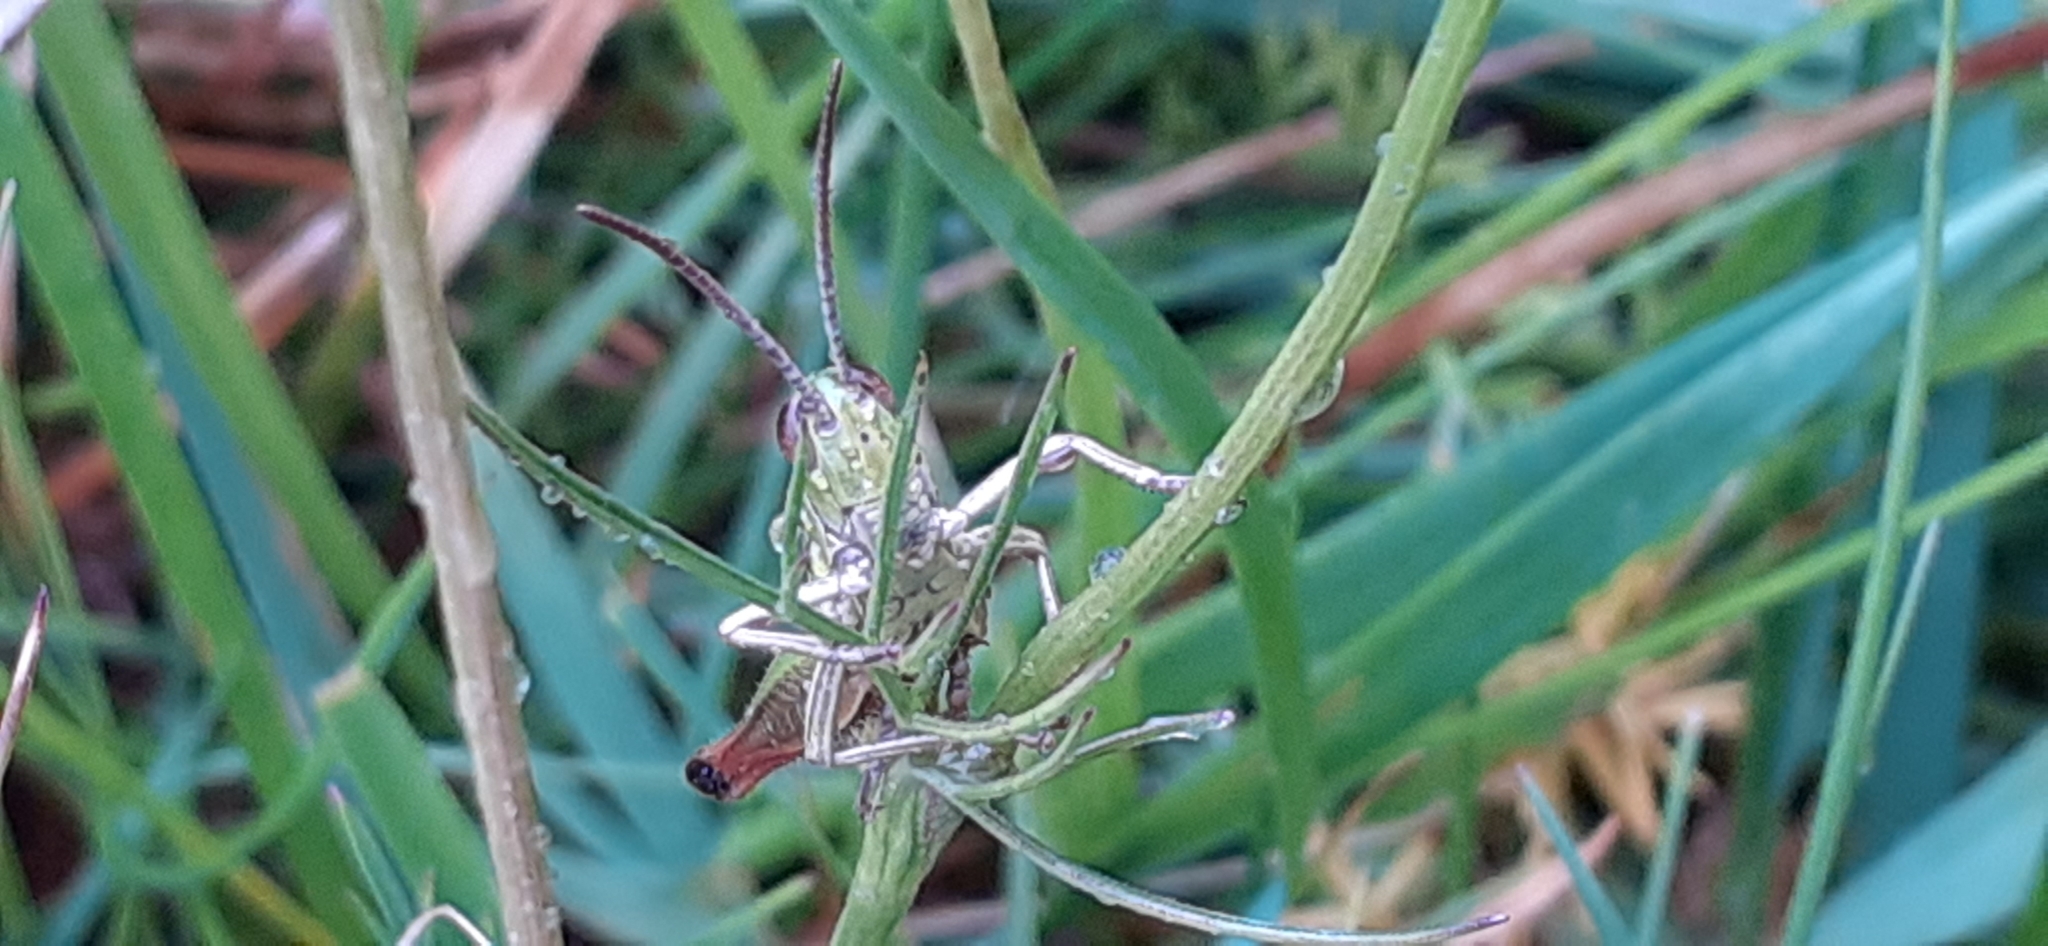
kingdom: Animalia
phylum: Arthropoda
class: Insecta
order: Orthoptera
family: Acrididae
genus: Pseudochorthippus
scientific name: Pseudochorthippus parallelus
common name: Meadow grasshopper
